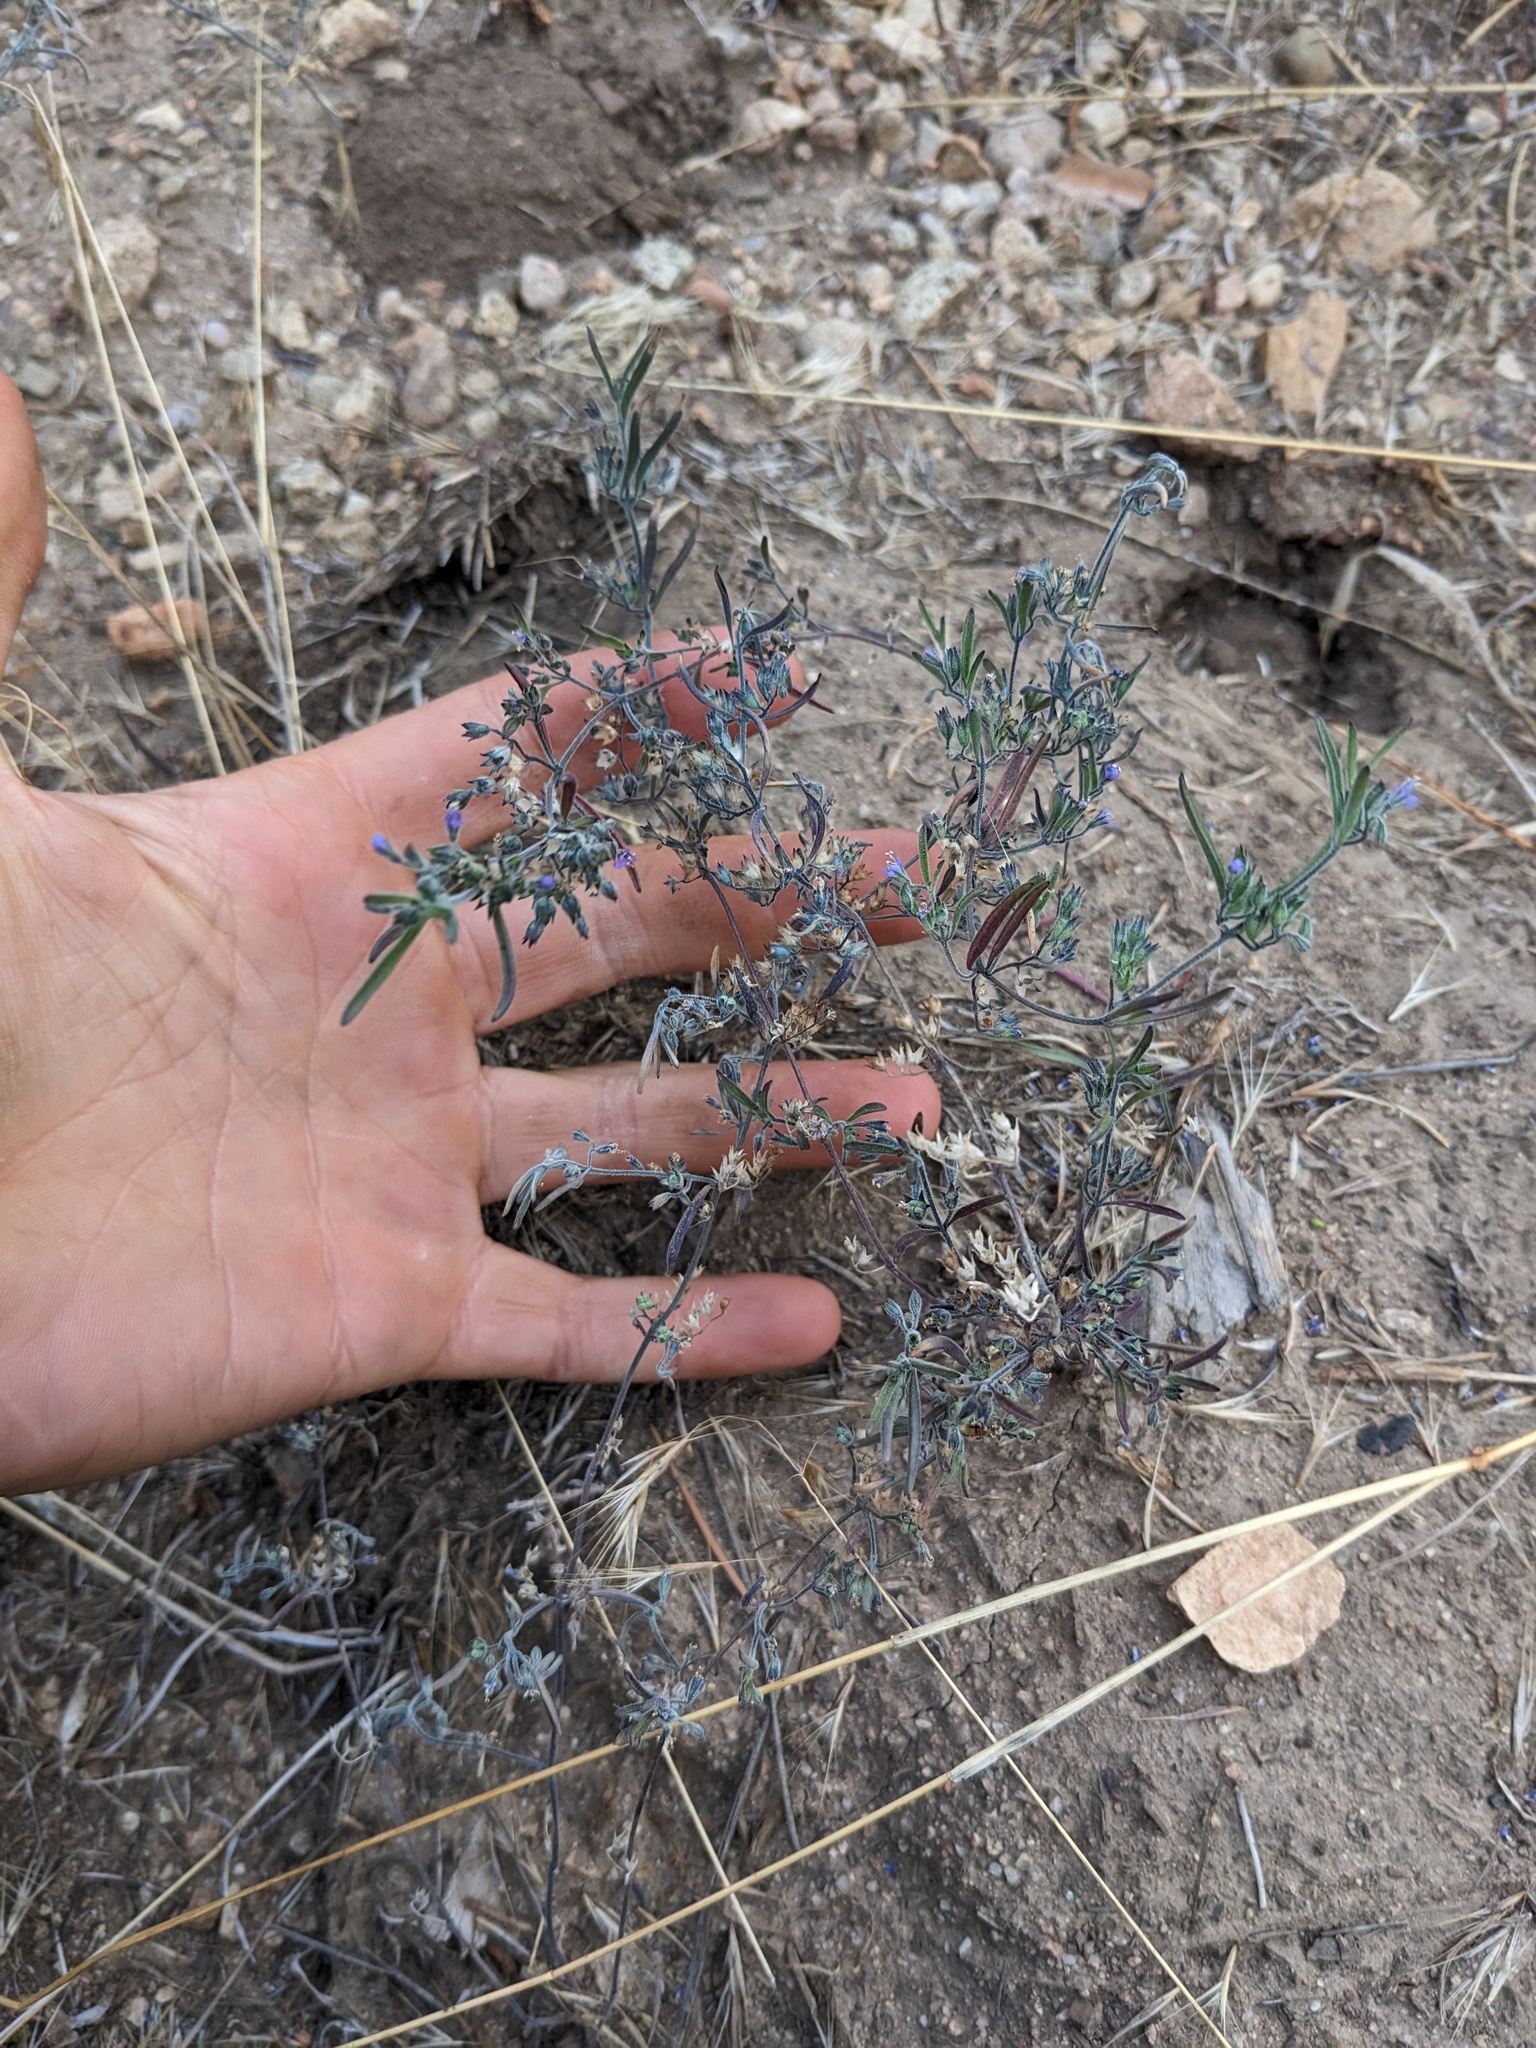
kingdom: Plantae
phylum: Tracheophyta
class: Magnoliopsida
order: Lamiales
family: Lamiaceae
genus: Trichostema
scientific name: Trichostema micranthum
